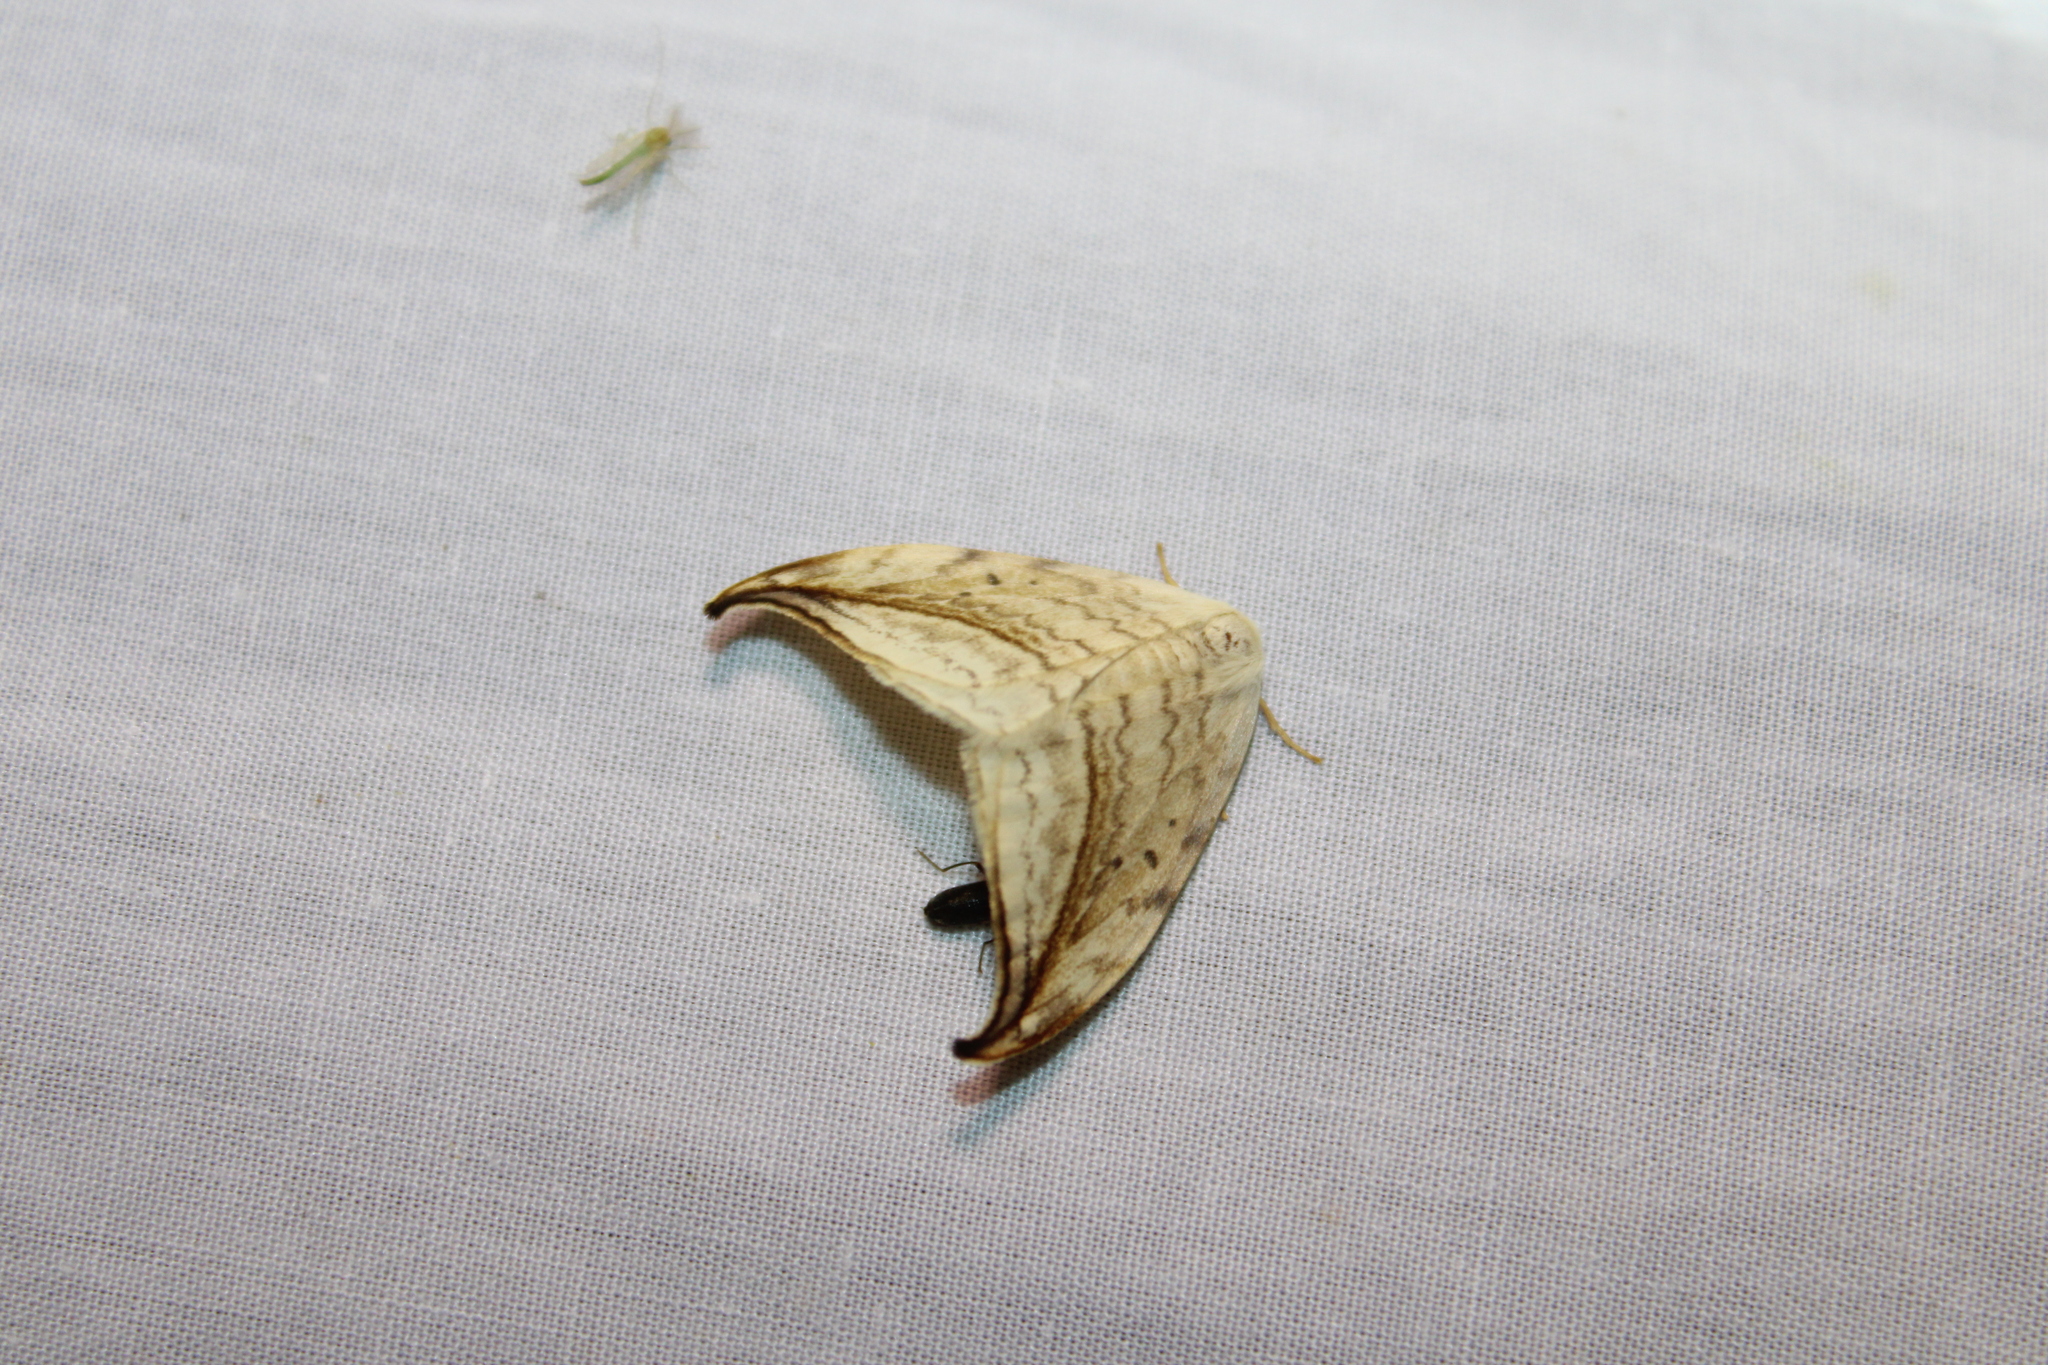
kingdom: Animalia
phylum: Arthropoda
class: Insecta
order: Lepidoptera
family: Drepanidae
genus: Drepana
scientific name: Drepana arcuata
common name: Arched hooktip moth
